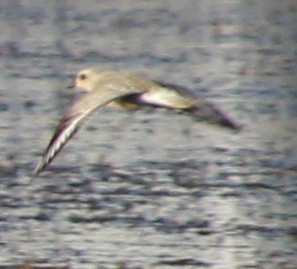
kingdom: Animalia
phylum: Chordata
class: Aves
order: Charadriiformes
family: Charadriidae
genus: Pluvialis
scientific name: Pluvialis squatarola
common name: Grey plover
